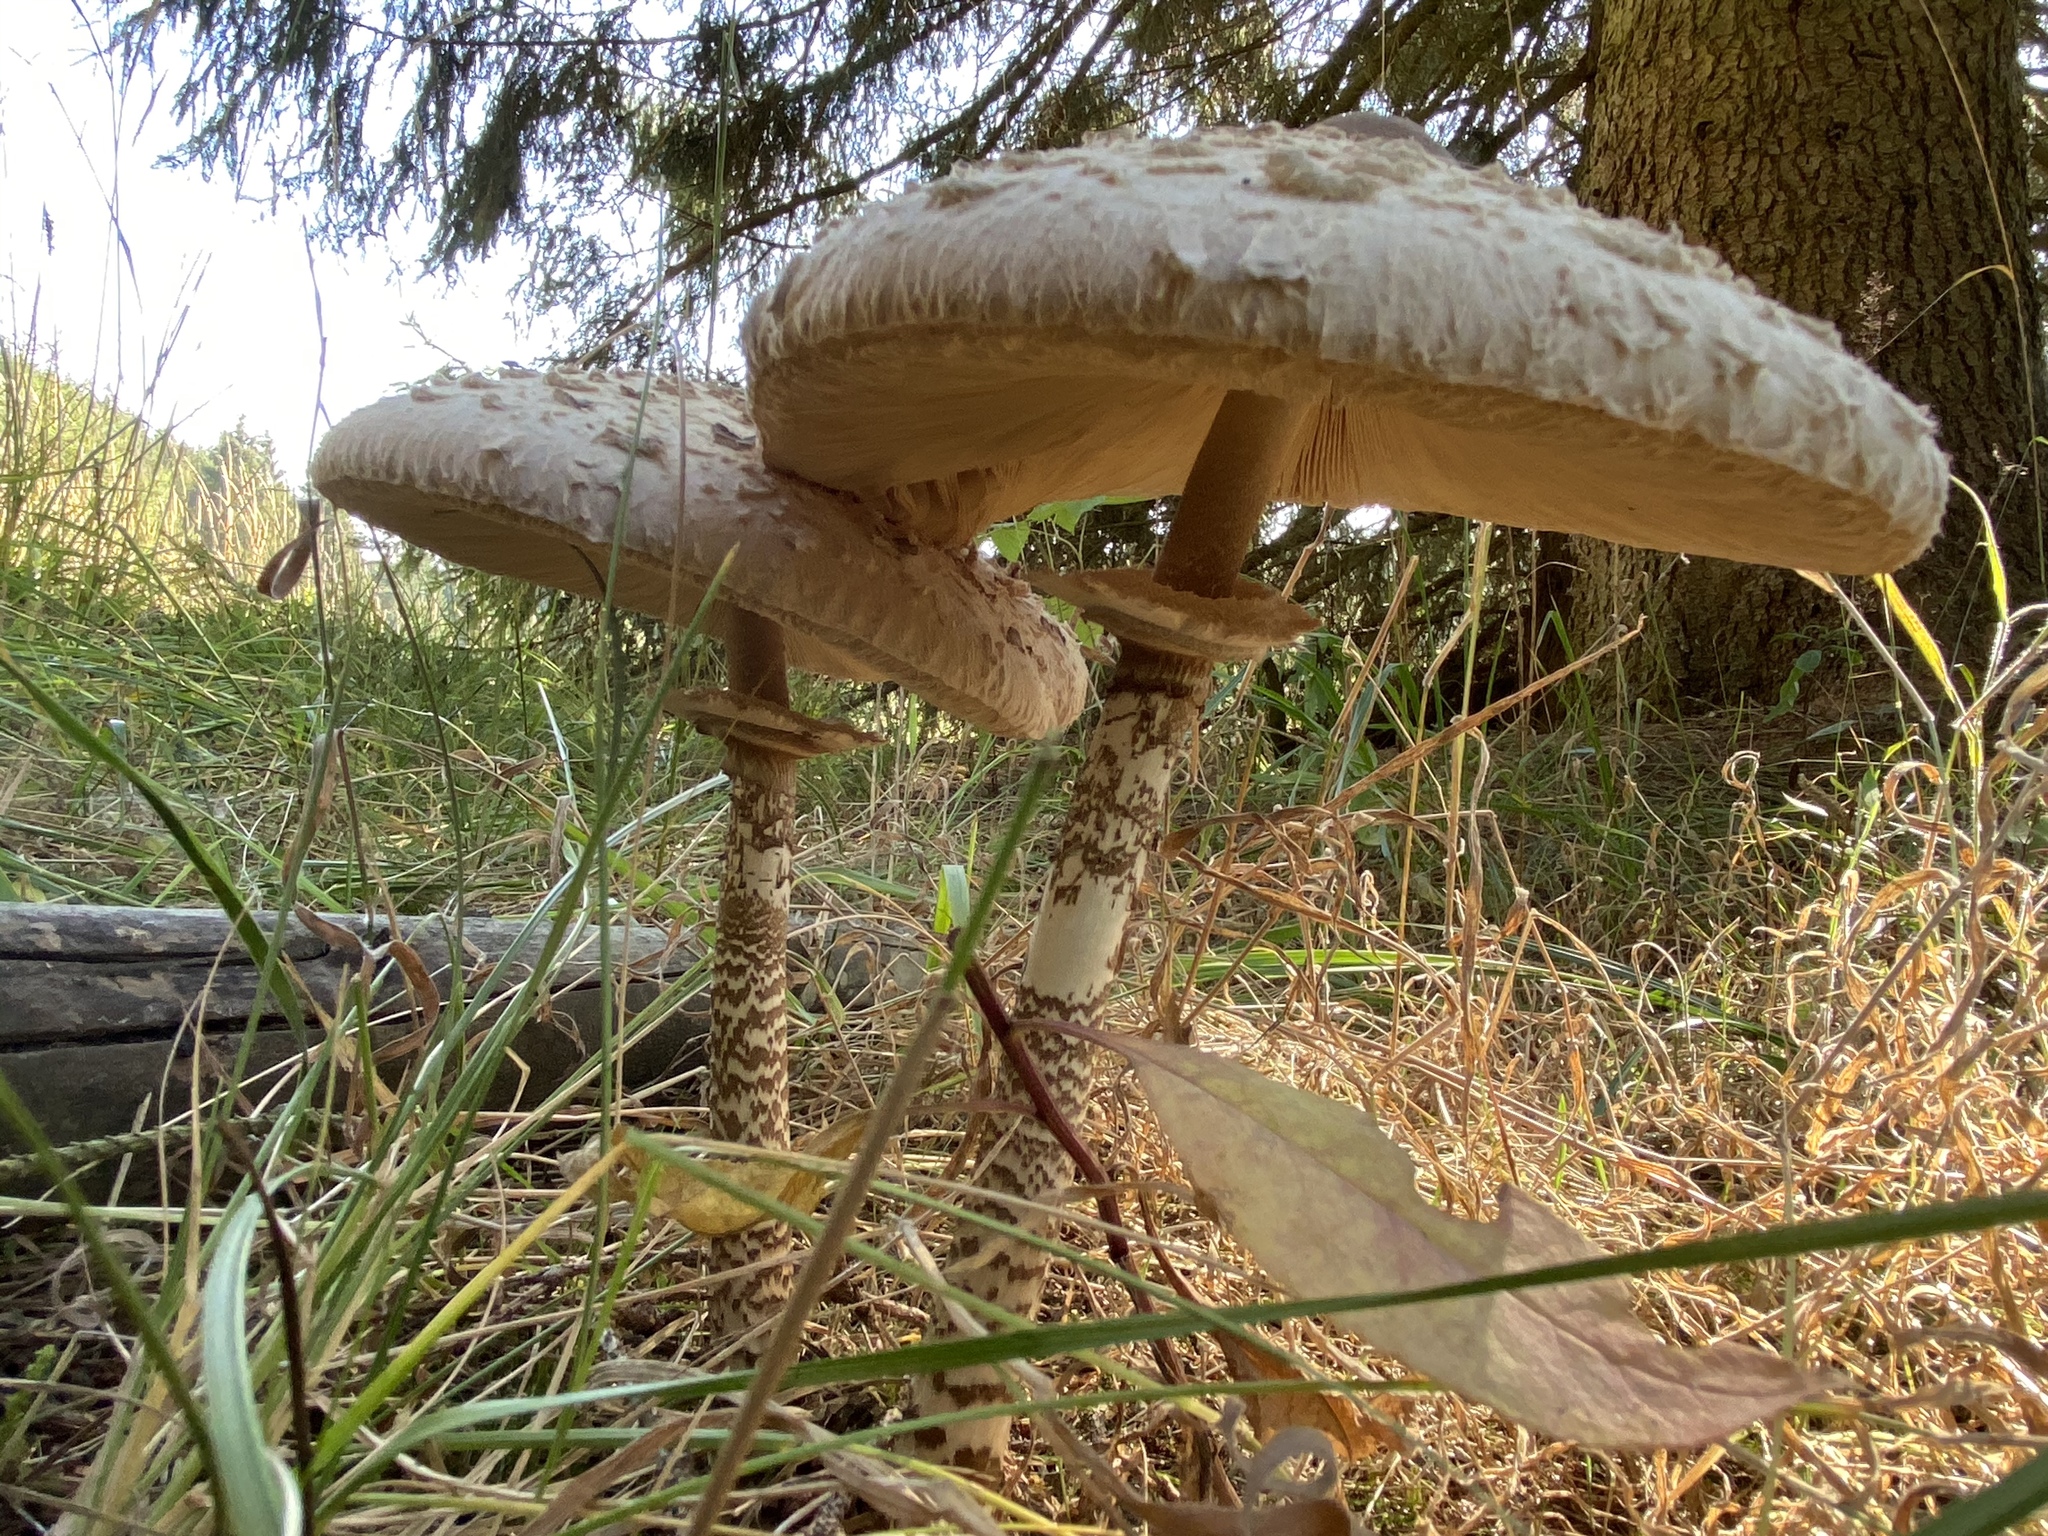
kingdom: Fungi
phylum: Basidiomycota
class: Agaricomycetes
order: Agaricales
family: Agaricaceae
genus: Macrolepiota
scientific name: Macrolepiota procera
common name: Parasol
